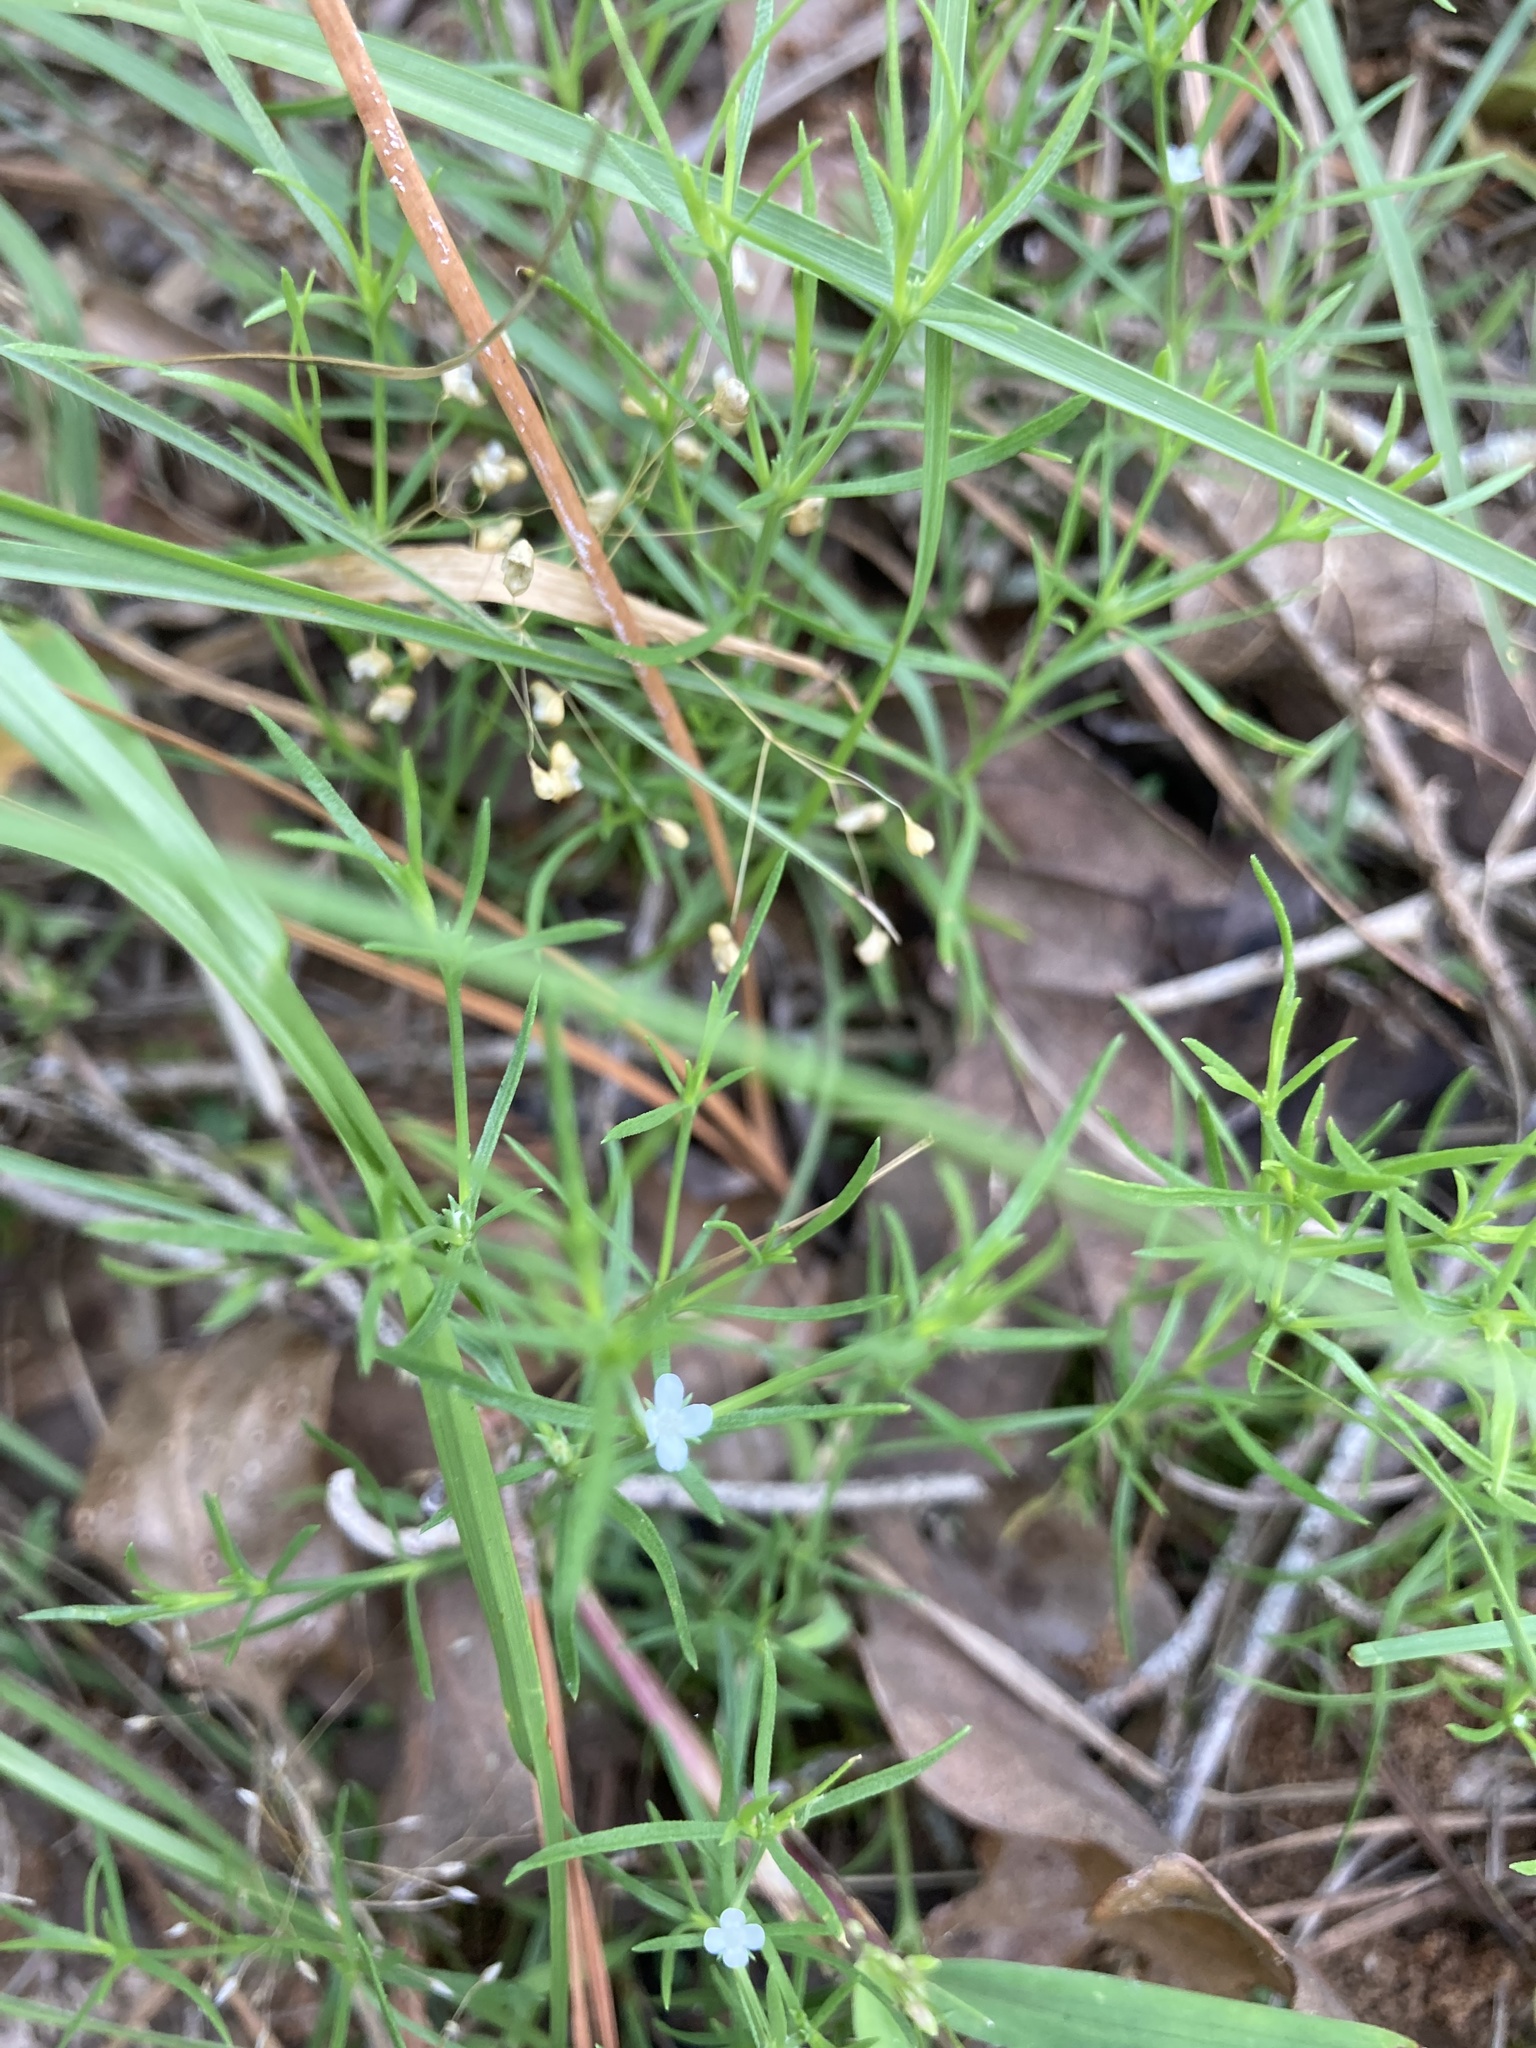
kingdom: Plantae
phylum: Tracheophyta
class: Magnoliopsida
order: Lamiales
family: Tetrachondraceae
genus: Polypremum
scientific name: Polypremum procumbens
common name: Juniper-leaf
